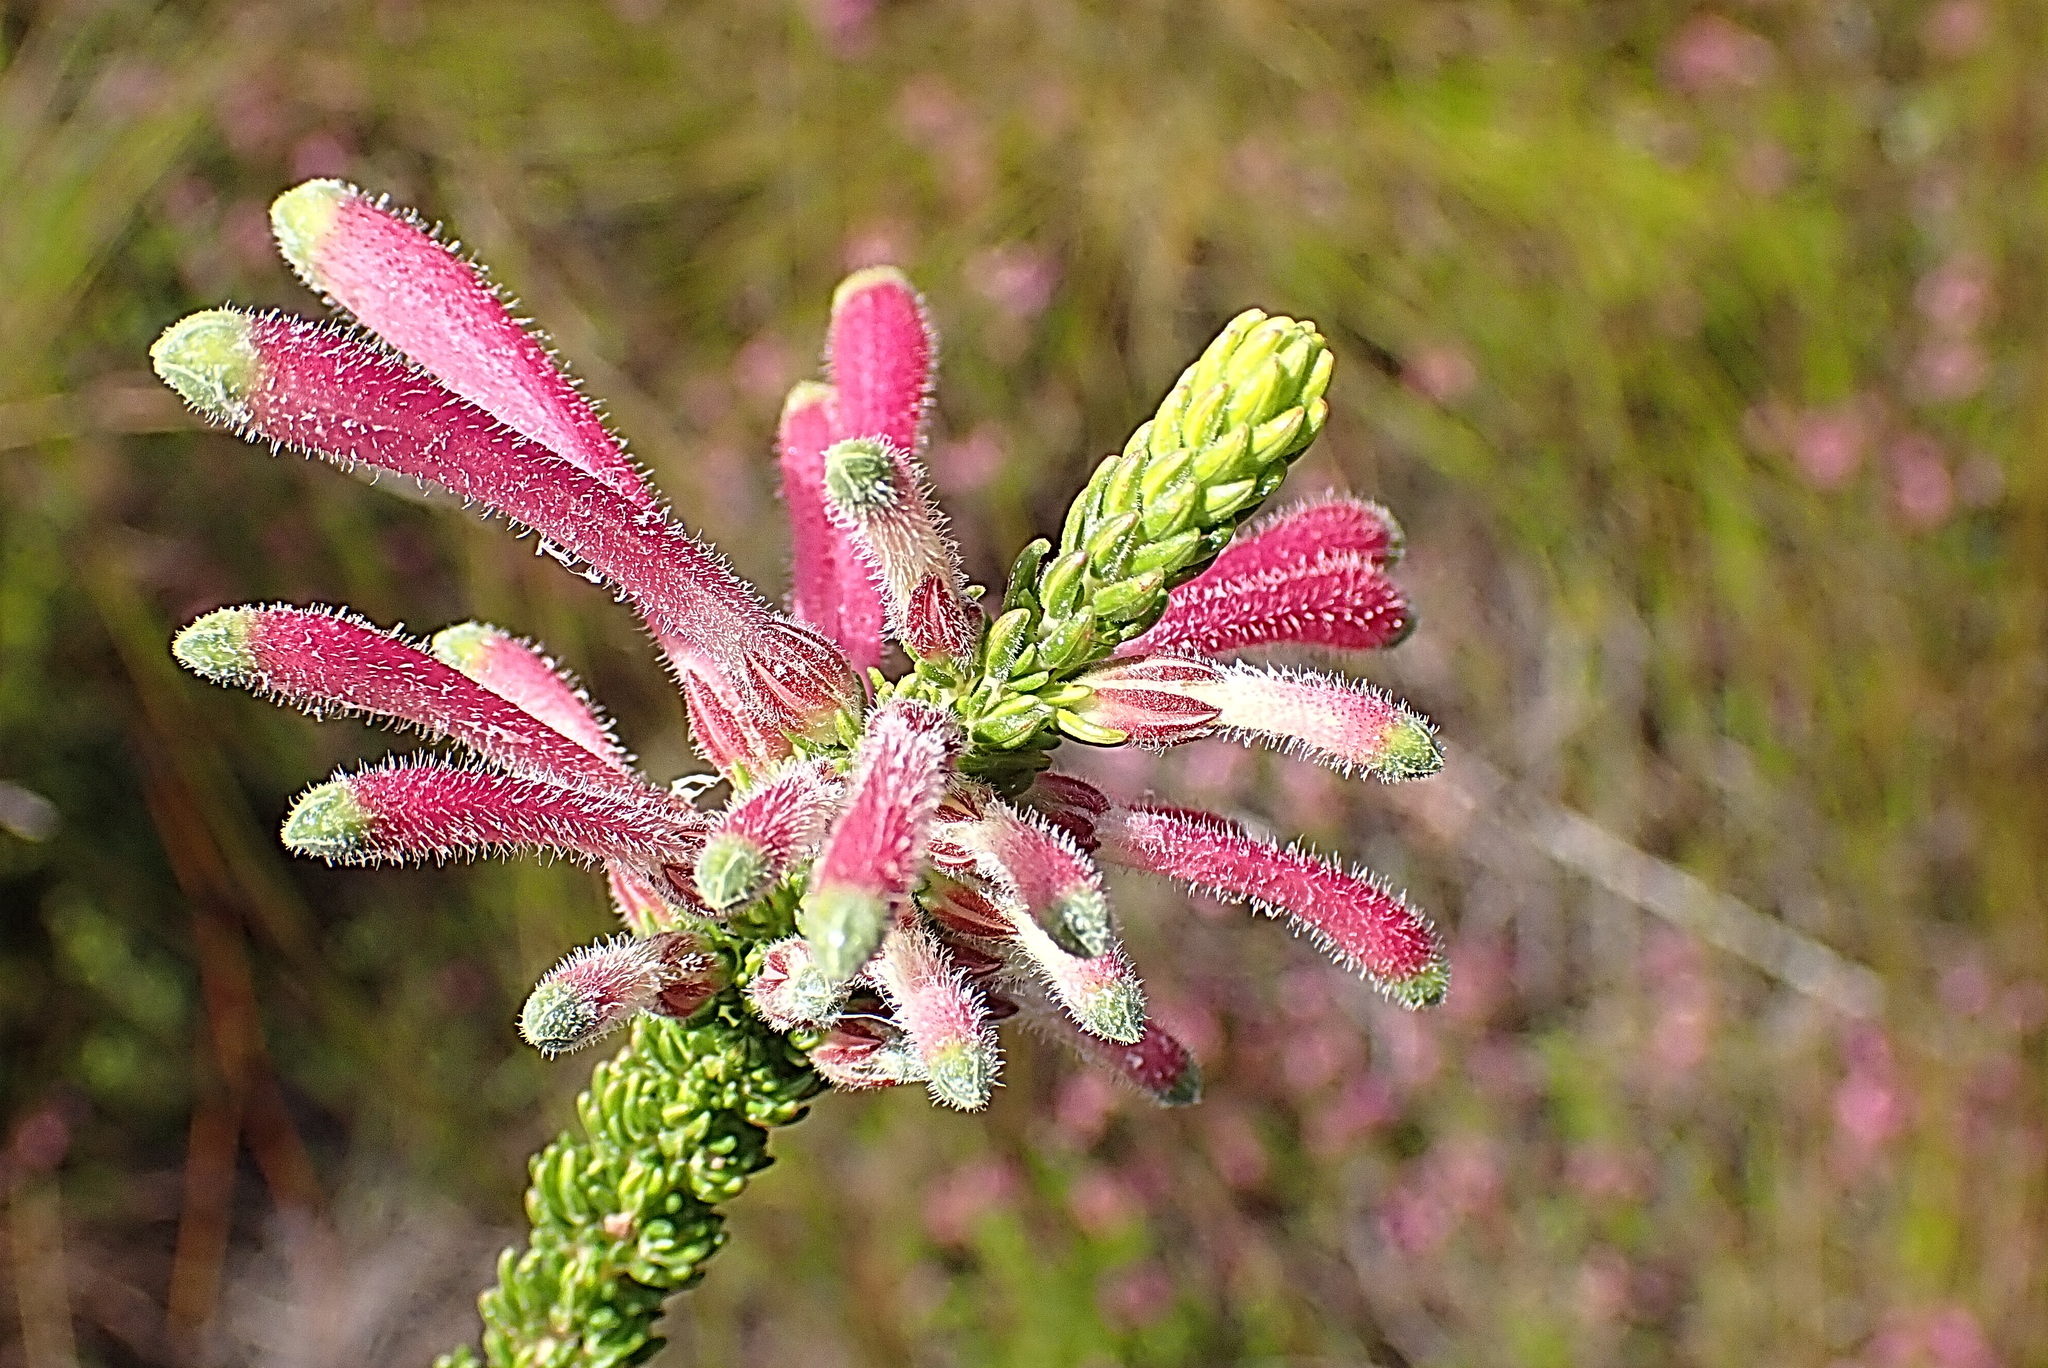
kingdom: Plantae
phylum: Tracheophyta
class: Magnoliopsida
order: Ericales
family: Ericaceae
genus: Erica
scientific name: Erica densifolia
